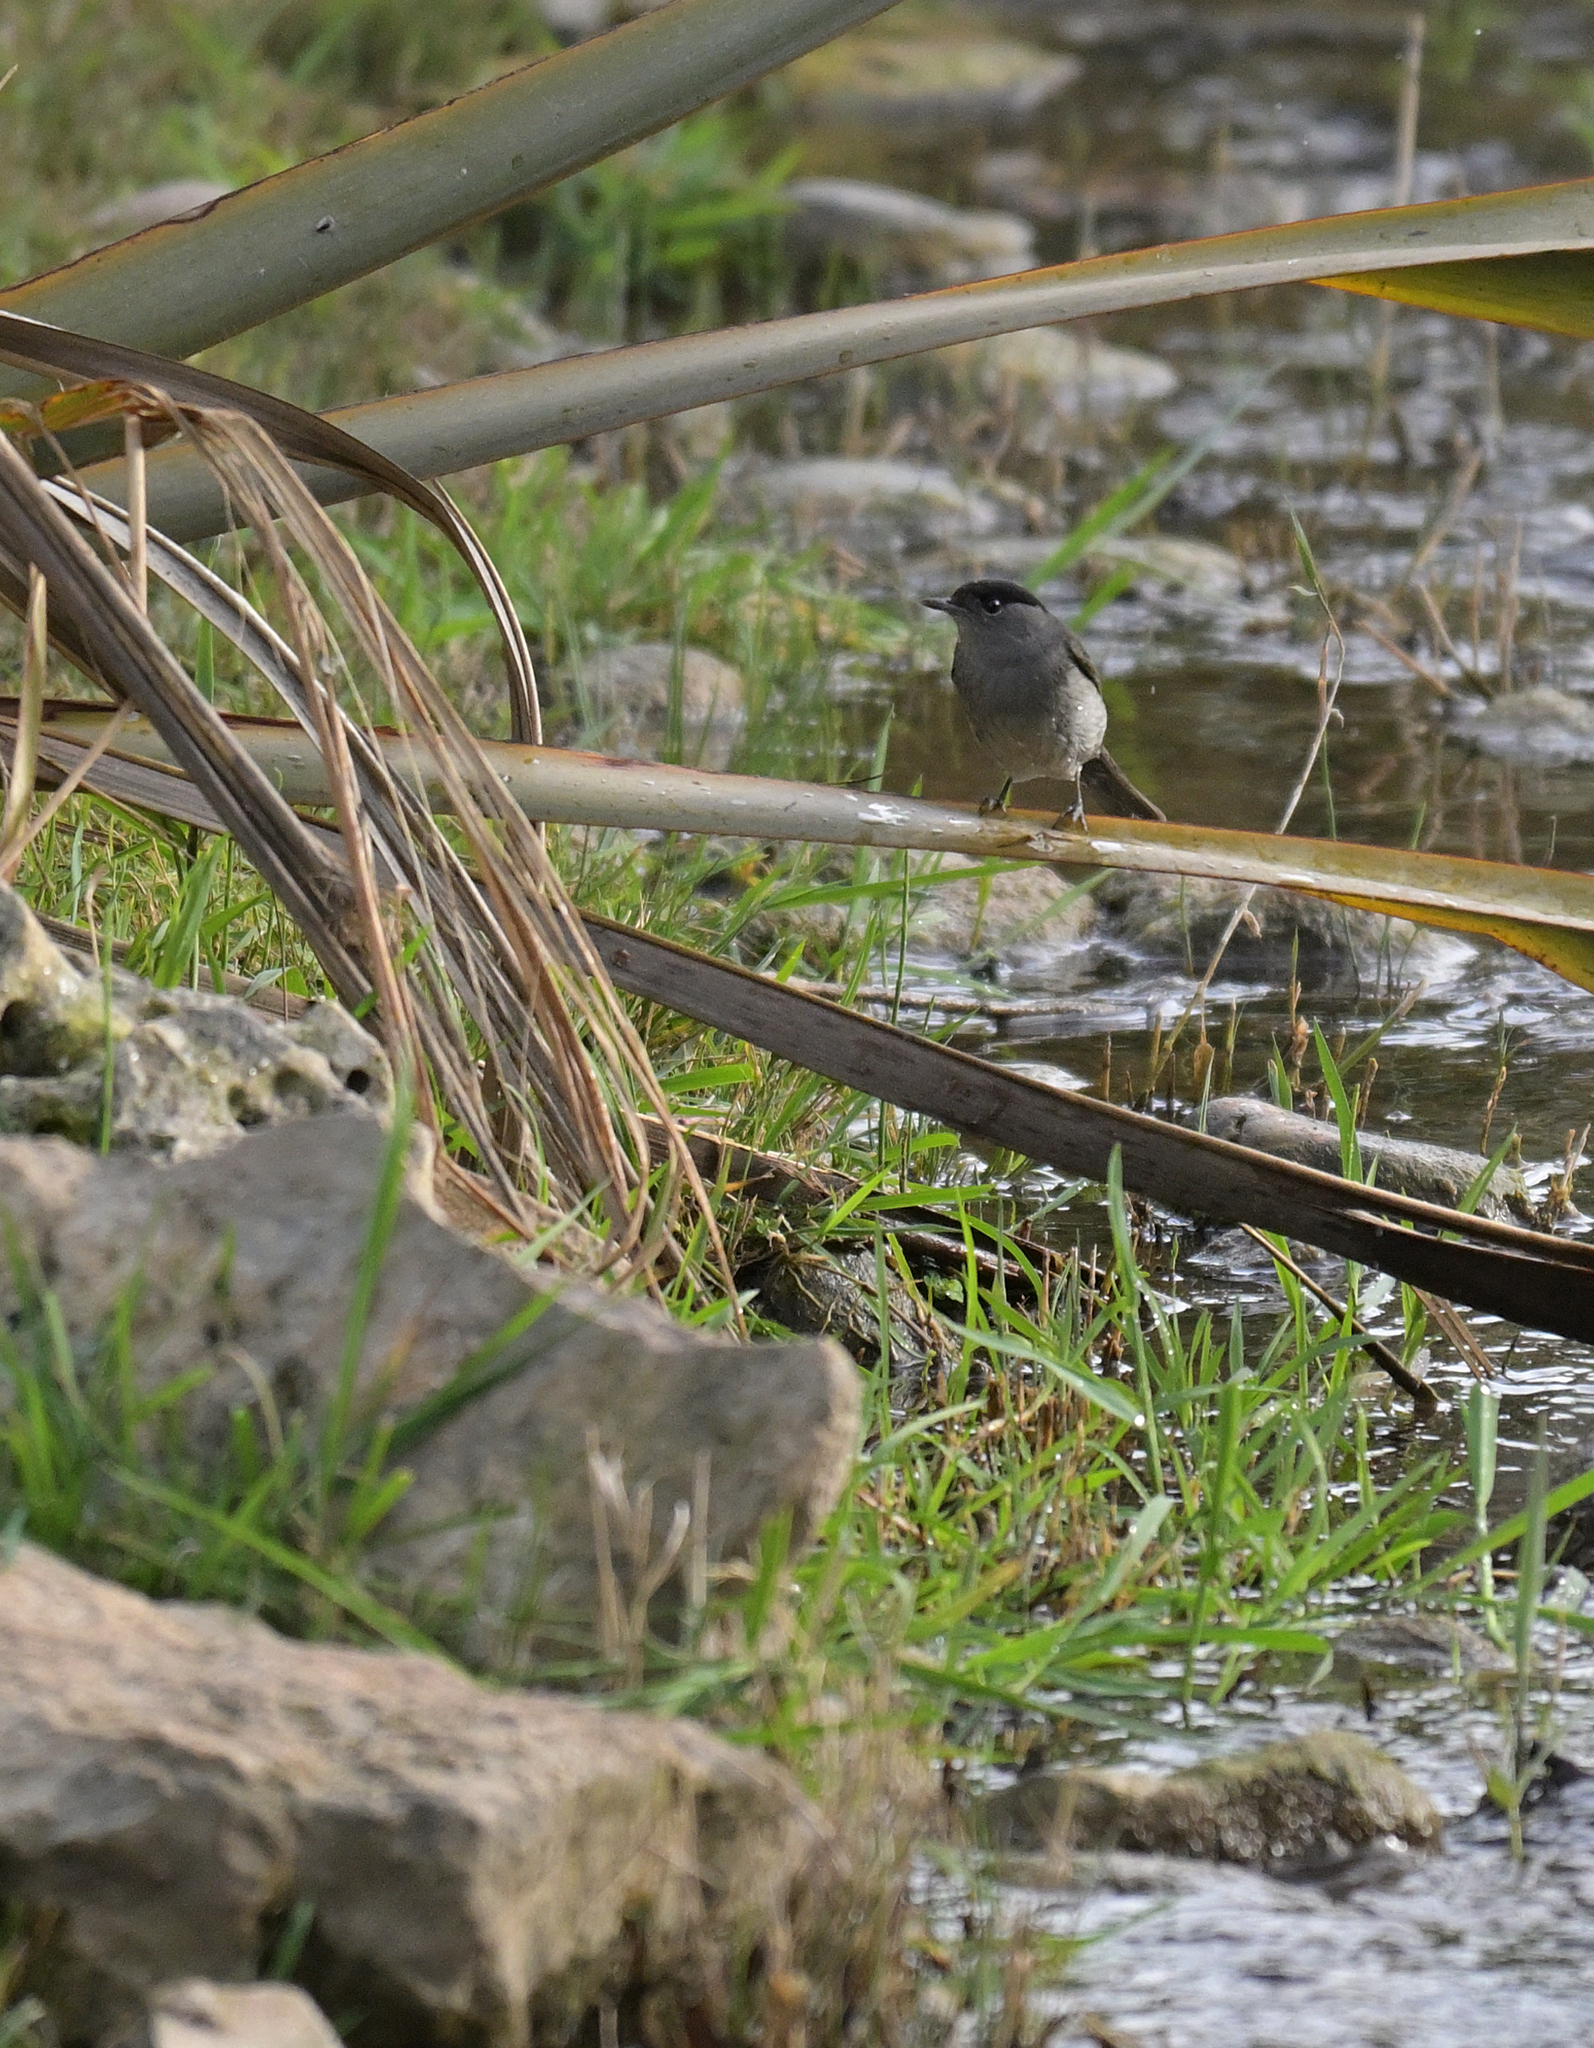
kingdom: Animalia
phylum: Chordata
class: Aves
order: Passeriformes
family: Sylviidae
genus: Sylvia
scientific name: Sylvia atricapilla
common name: Eurasian blackcap
